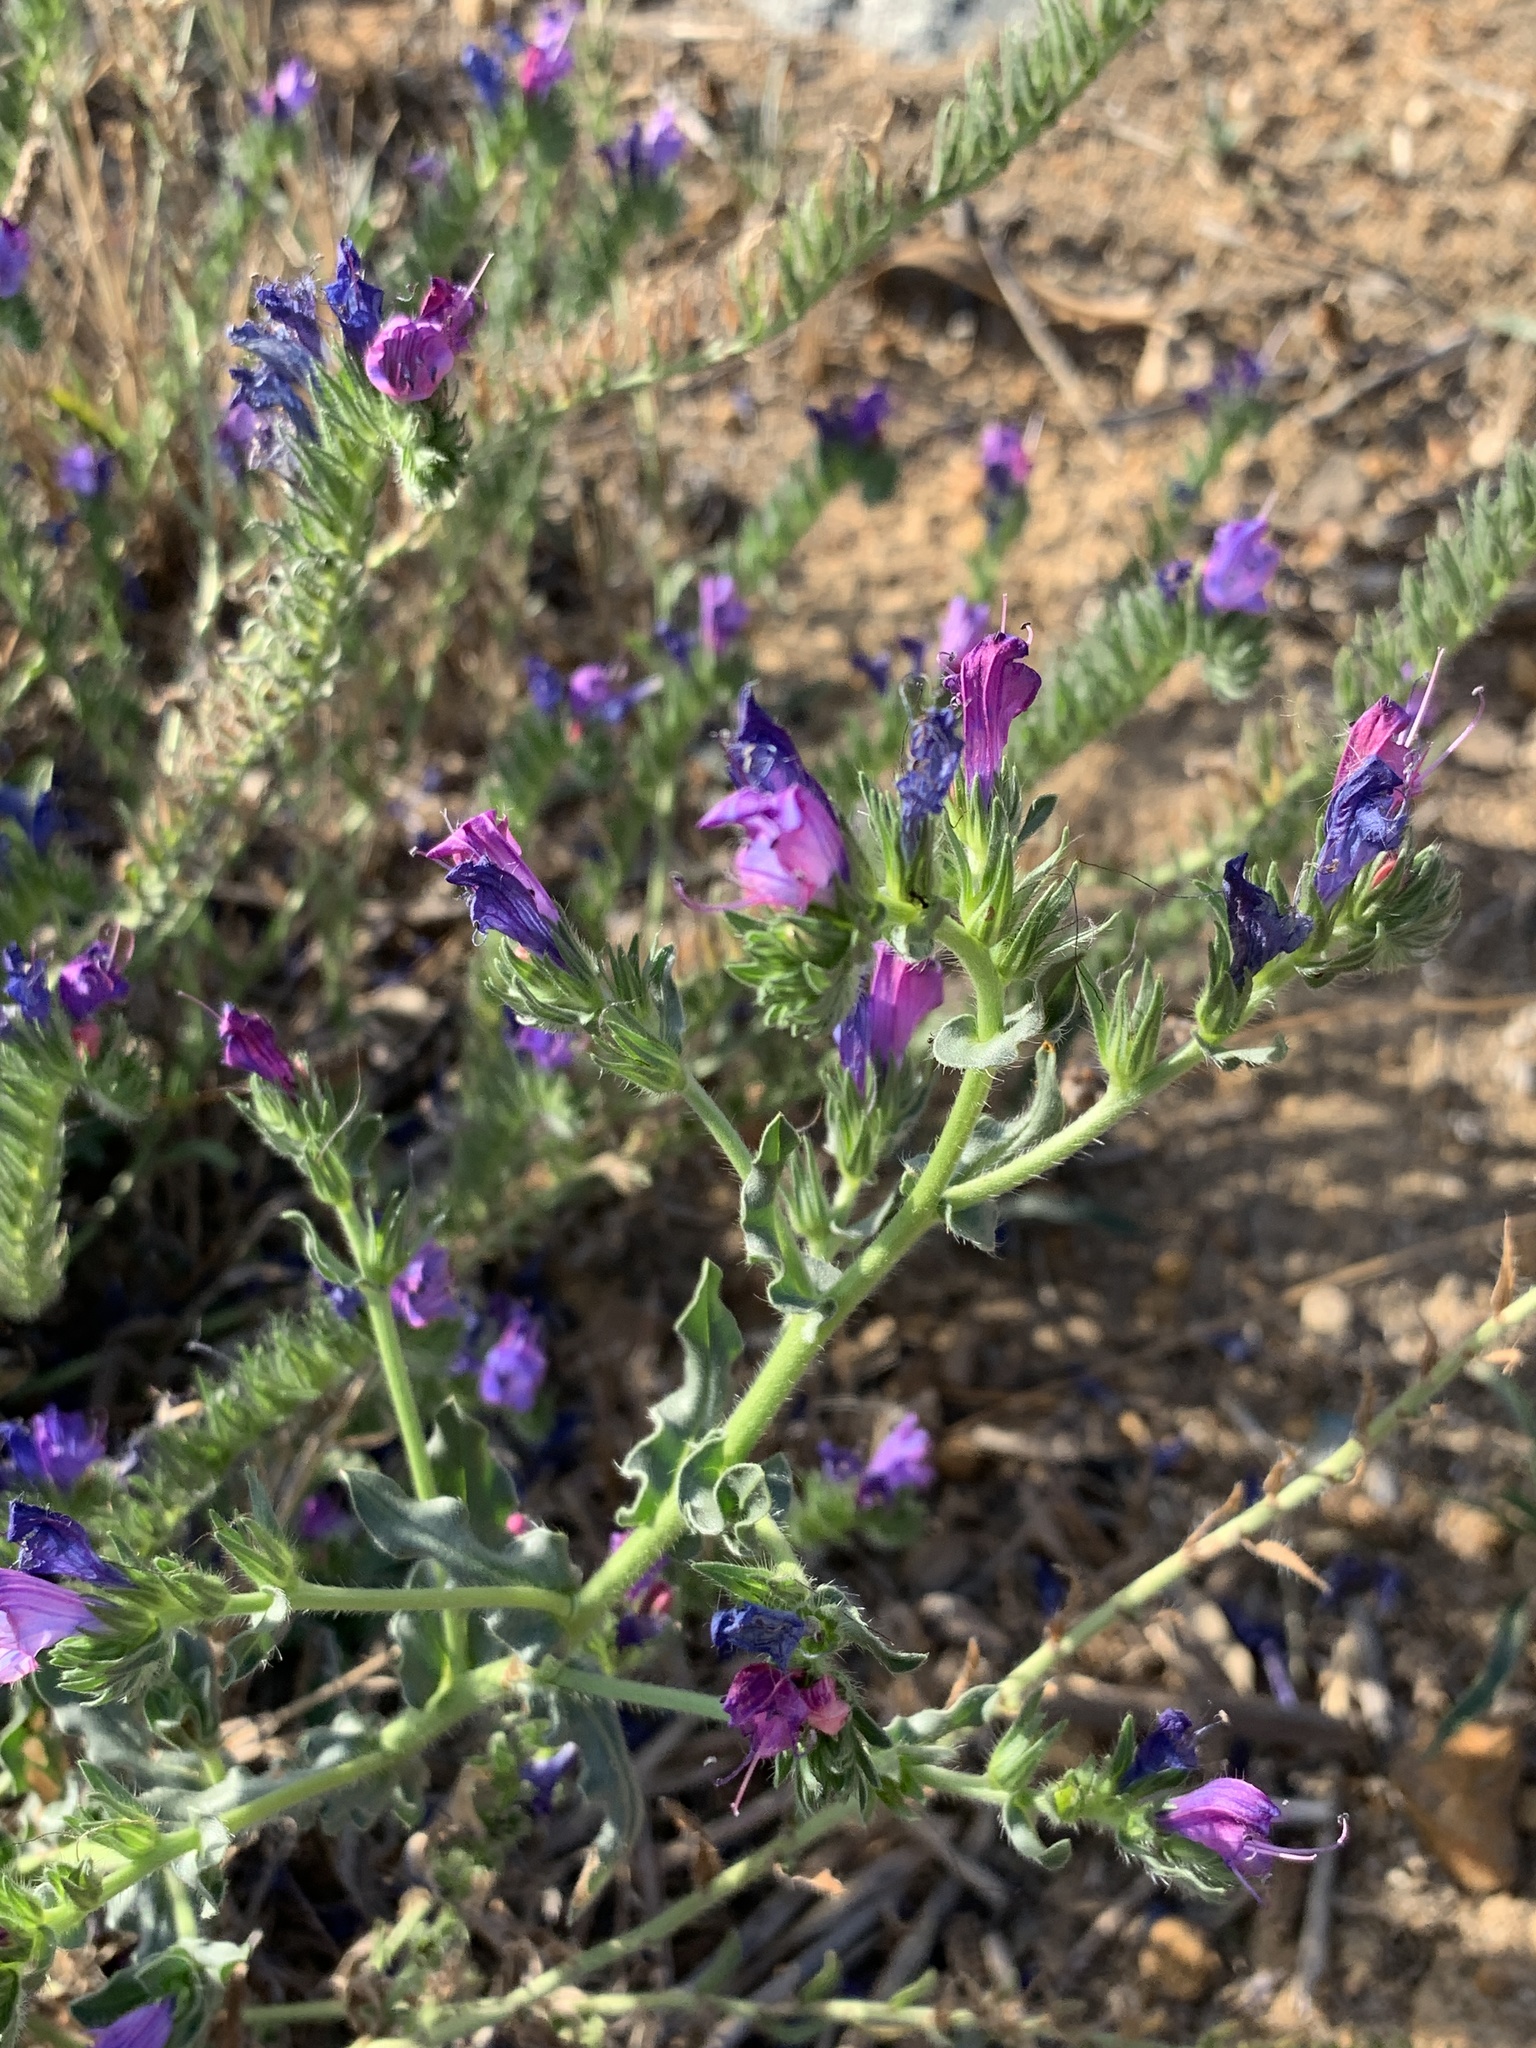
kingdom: Plantae
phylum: Tracheophyta
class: Magnoliopsida
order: Boraginales
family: Boraginaceae
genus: Echium
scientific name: Echium plantagineum
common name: Purple viper's-bugloss
